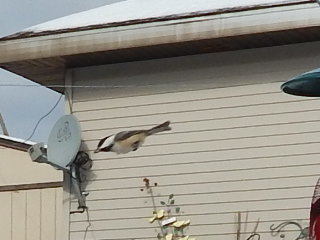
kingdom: Animalia
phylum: Chordata
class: Aves
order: Passeriformes
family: Paridae
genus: Poecile
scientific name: Poecile atricapillus
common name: Black-capped chickadee
